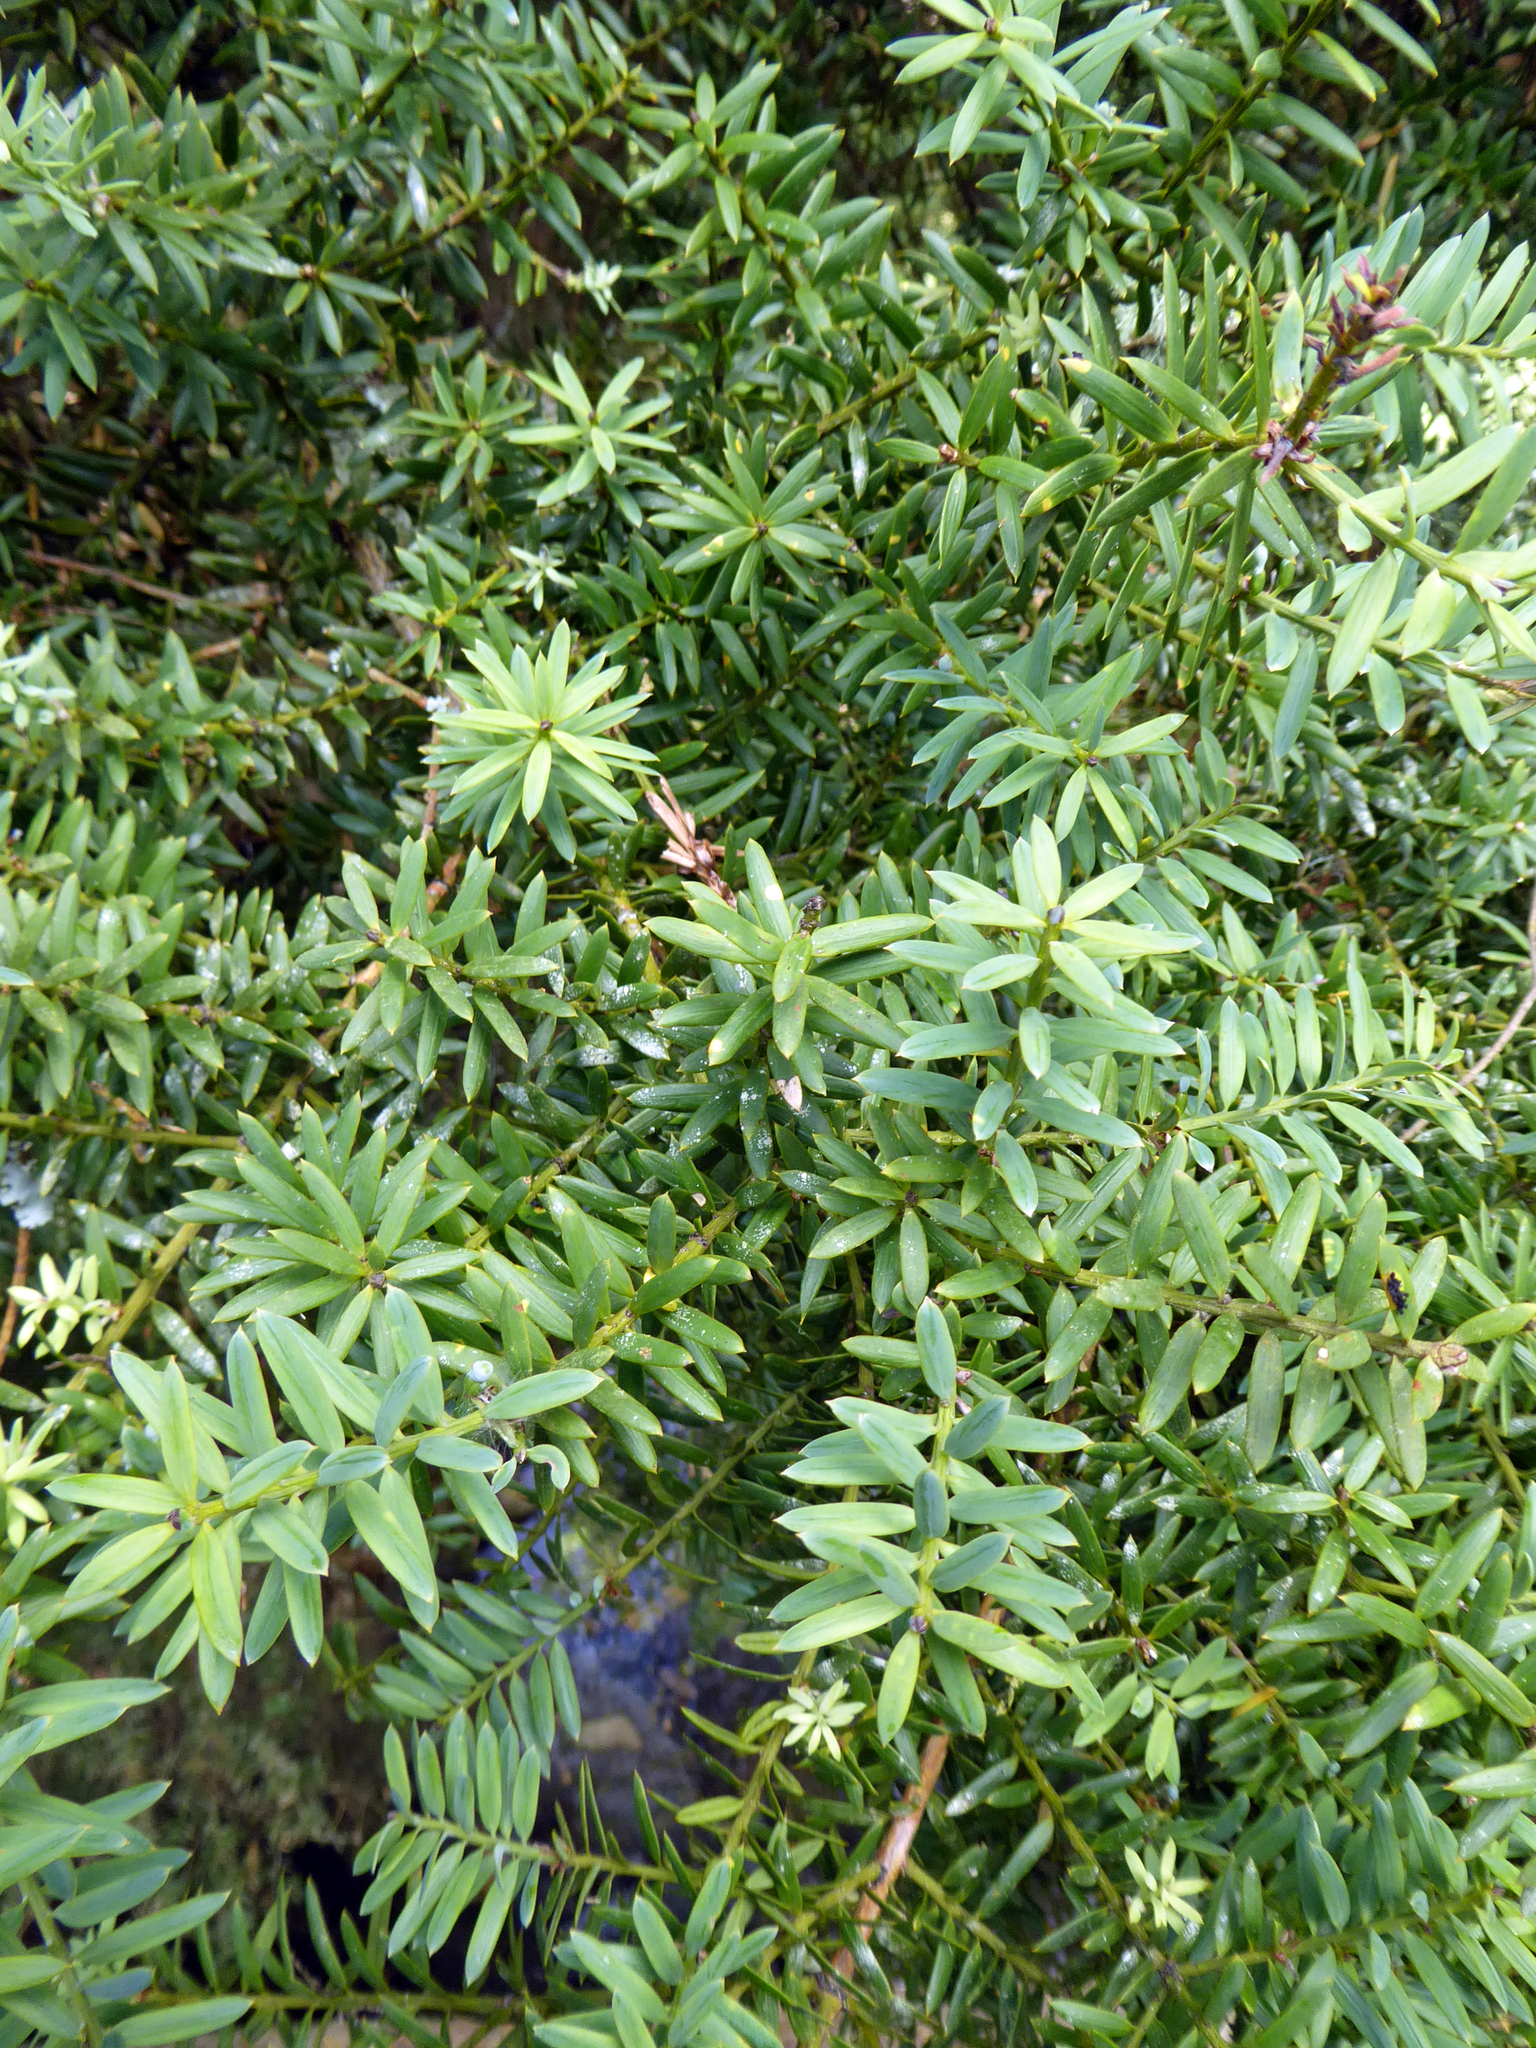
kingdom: Plantae
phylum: Tracheophyta
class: Pinopsida
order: Pinales
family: Podocarpaceae
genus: Podocarpus
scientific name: Podocarpus totara
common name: Totara
